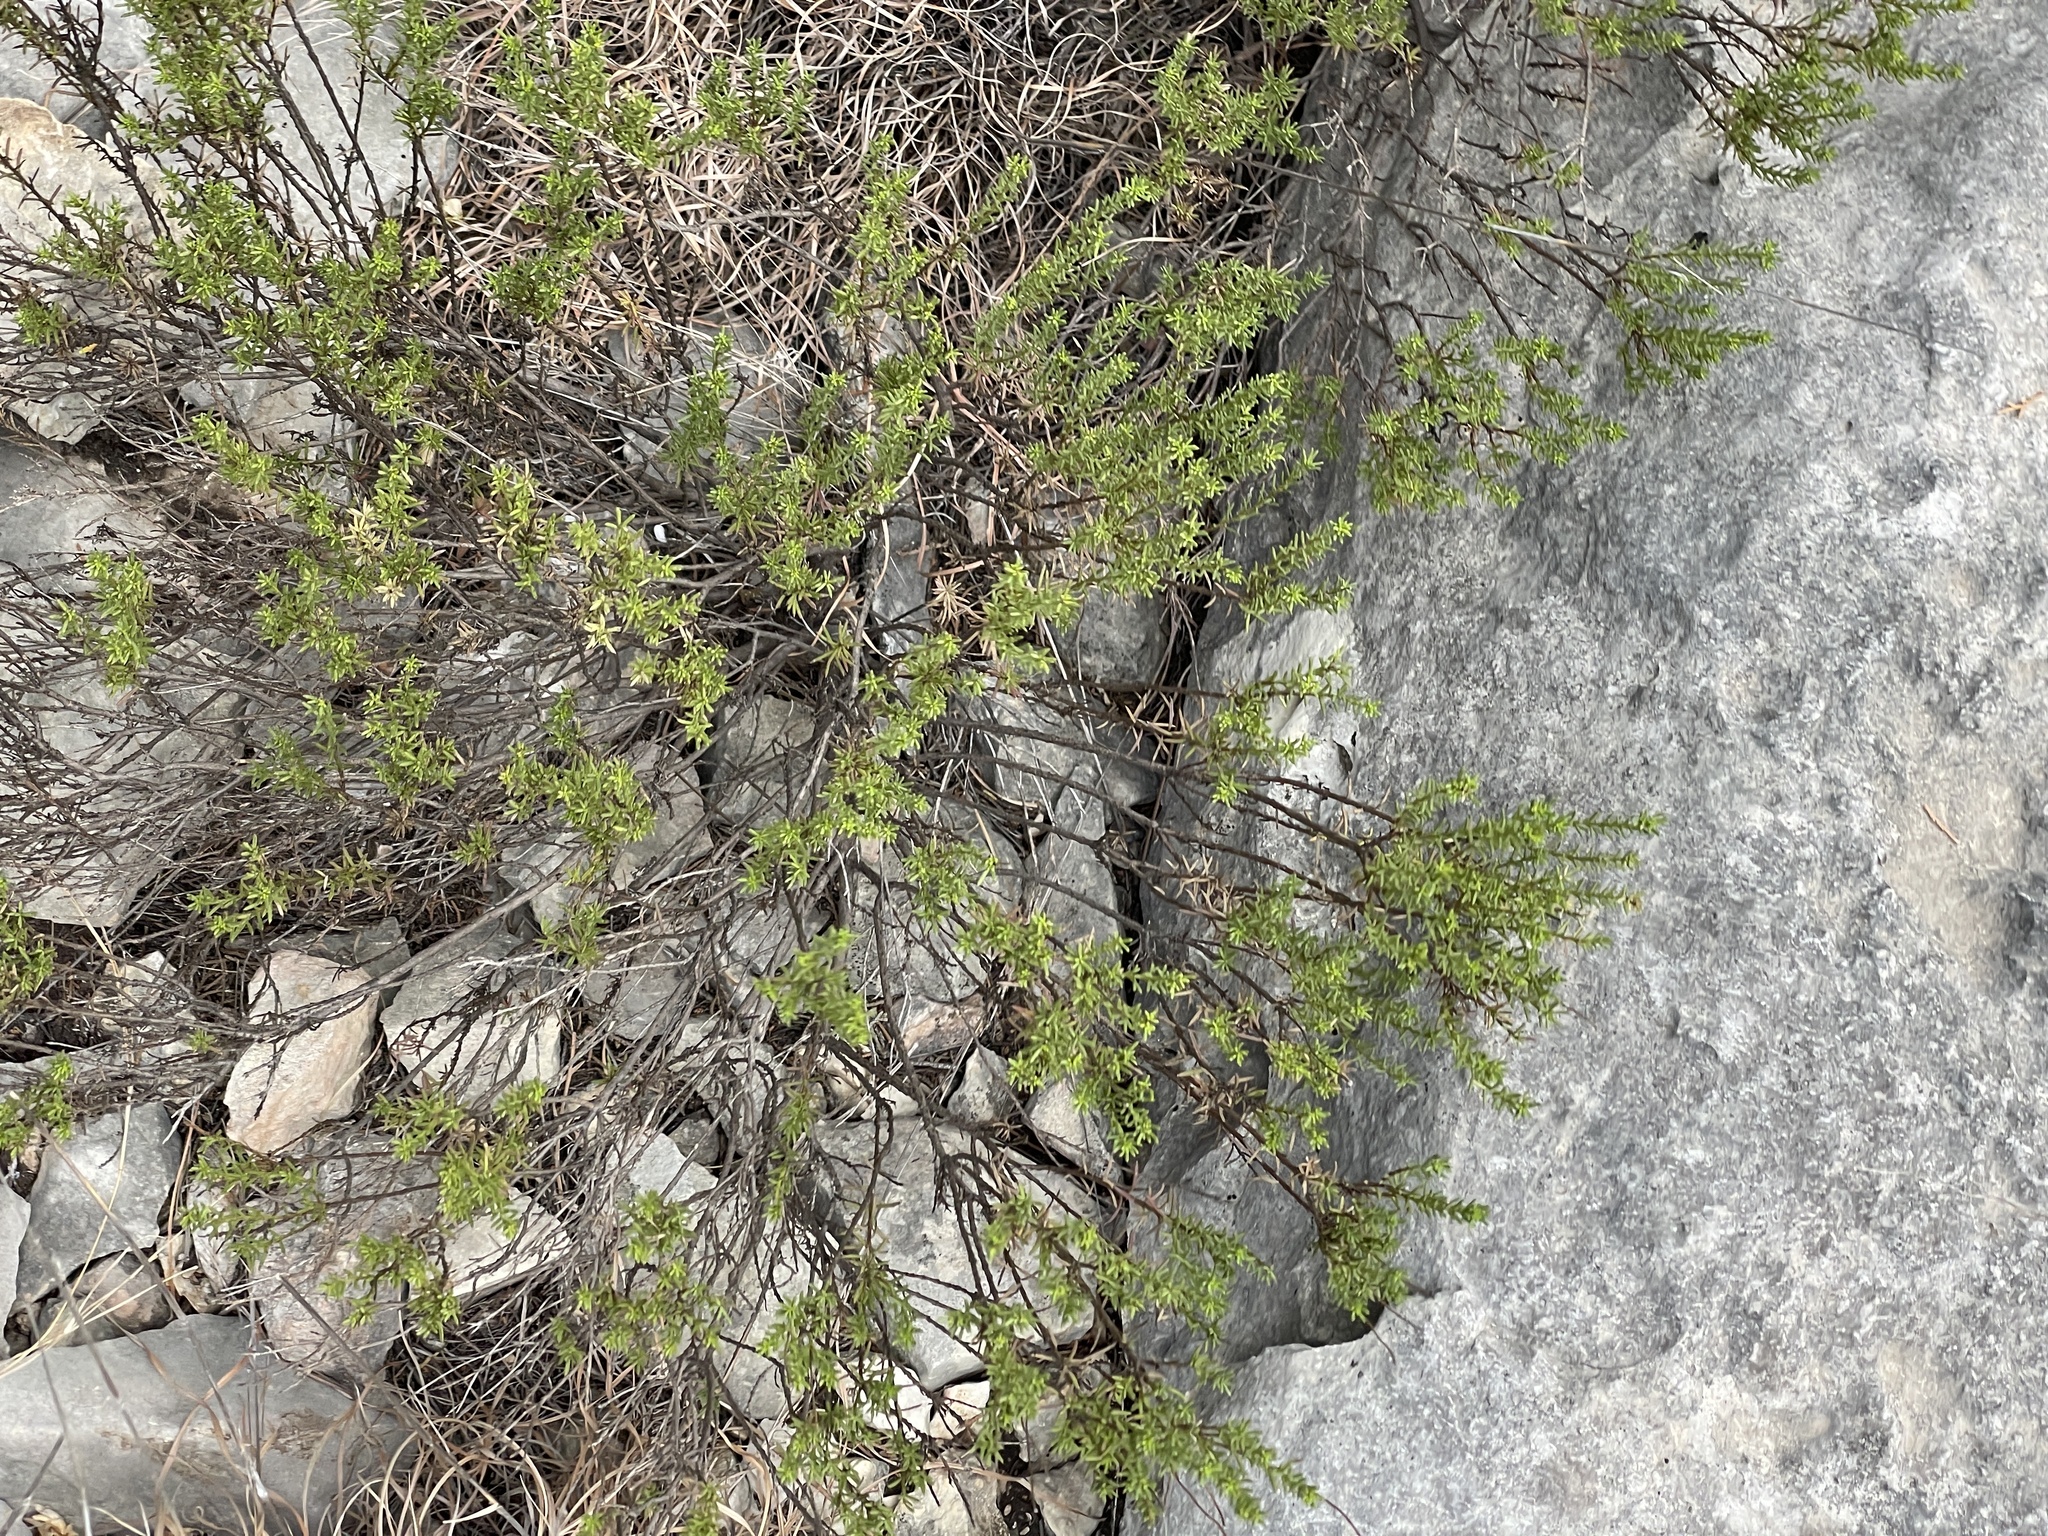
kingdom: Plantae
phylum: Tracheophyta
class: Magnoliopsida
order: Asterales
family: Asteraceae
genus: Chrysactinia
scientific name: Chrysactinia mexicana
